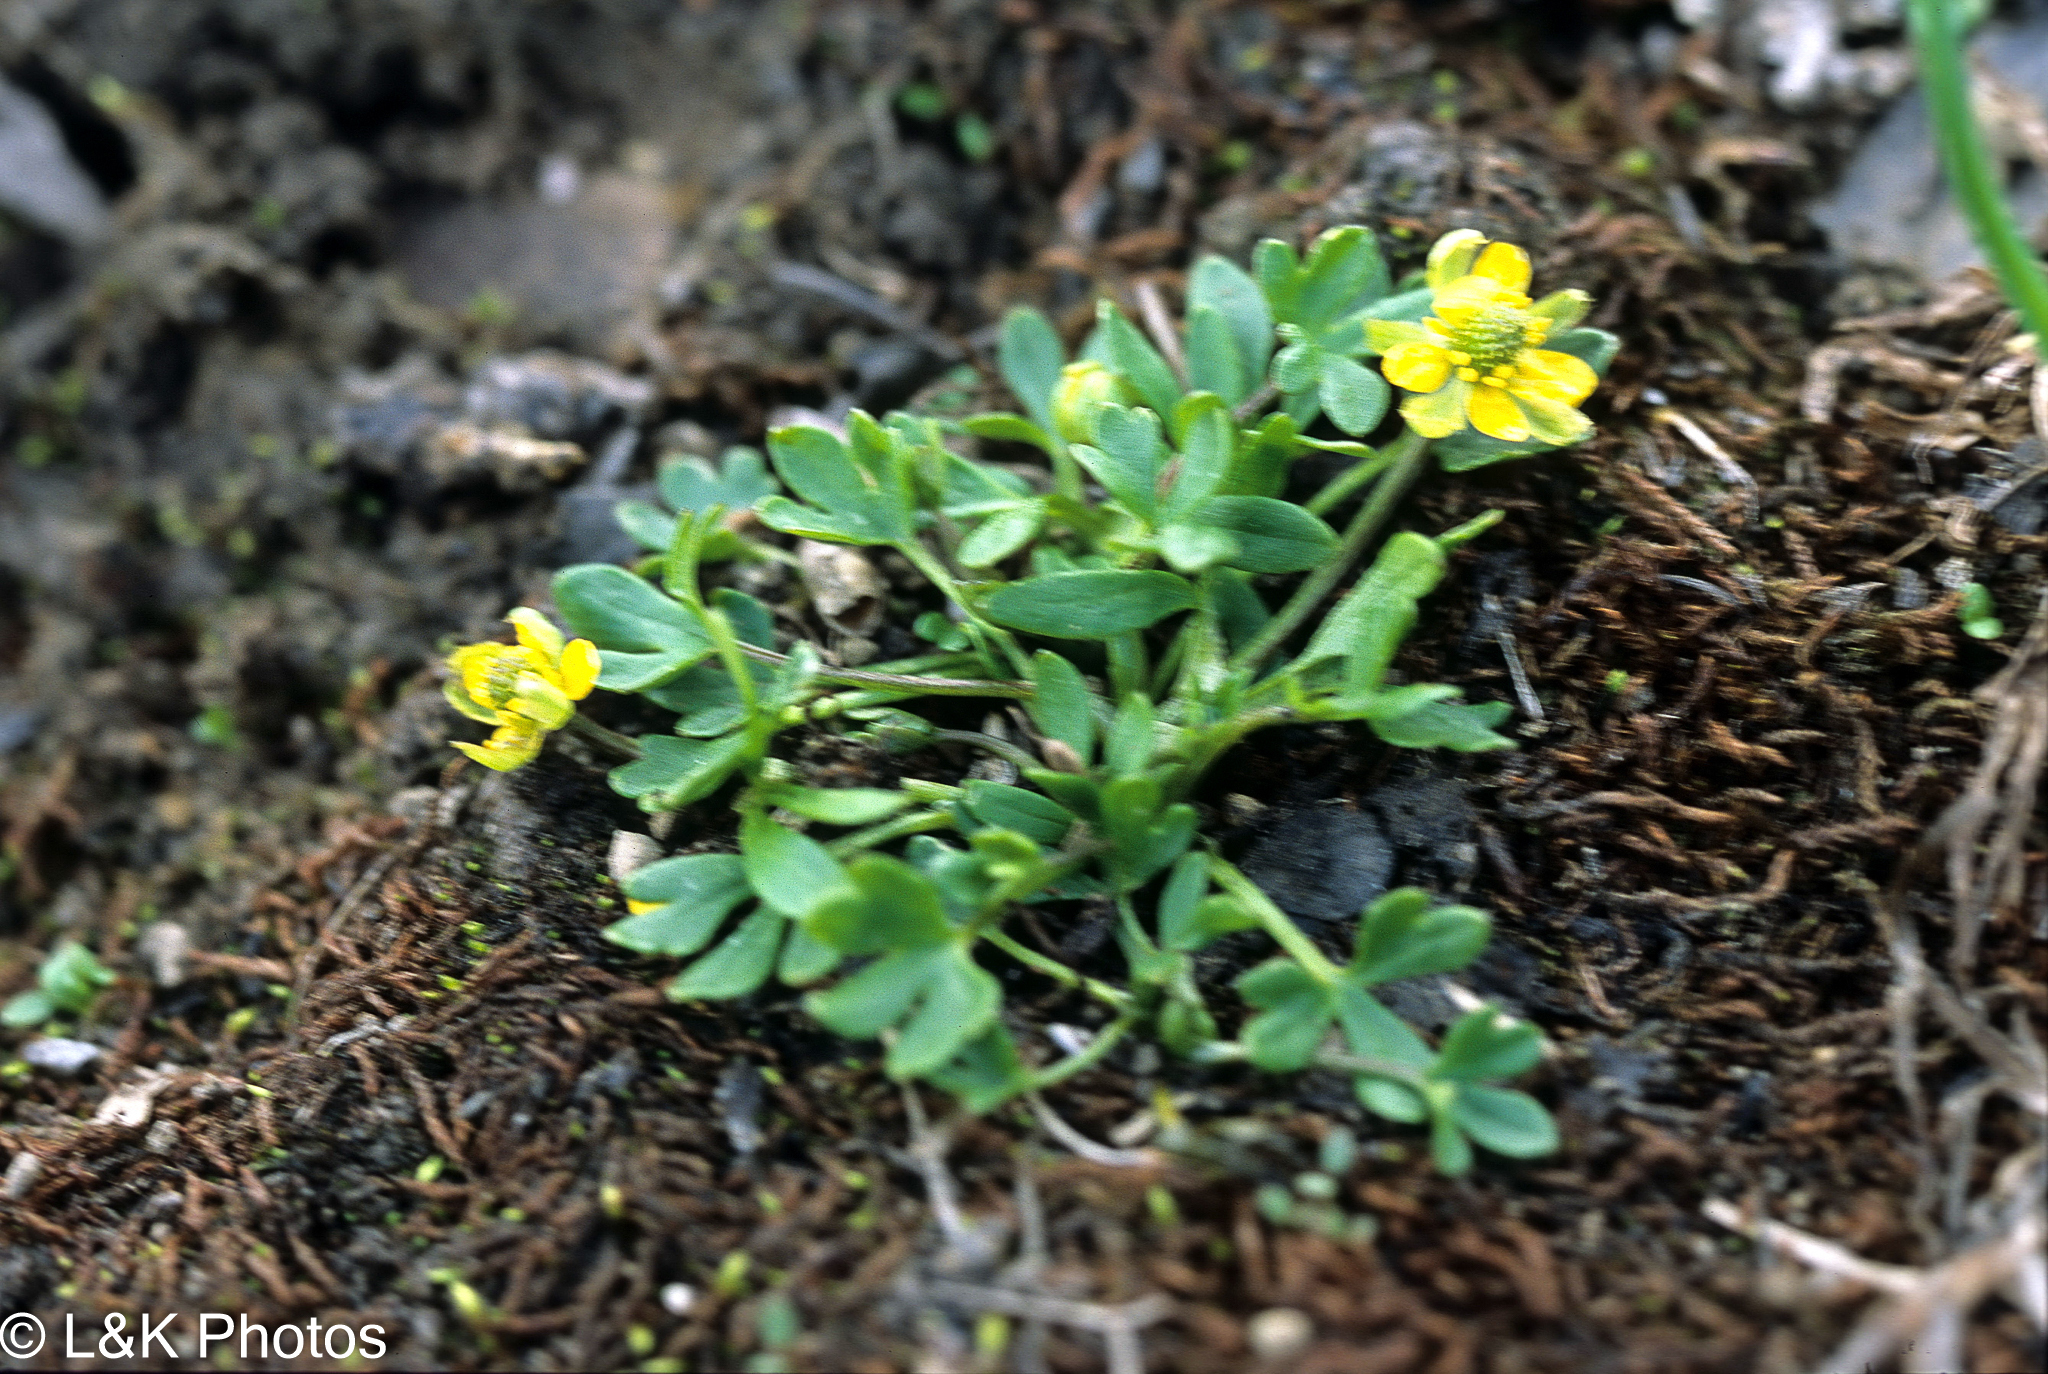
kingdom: Plantae
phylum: Tracheophyta
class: Magnoliopsida
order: Ranunculales
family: Ranunculaceae
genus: Ranunculus
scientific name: Ranunculus pygmaeus
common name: Dwarf buttercup
